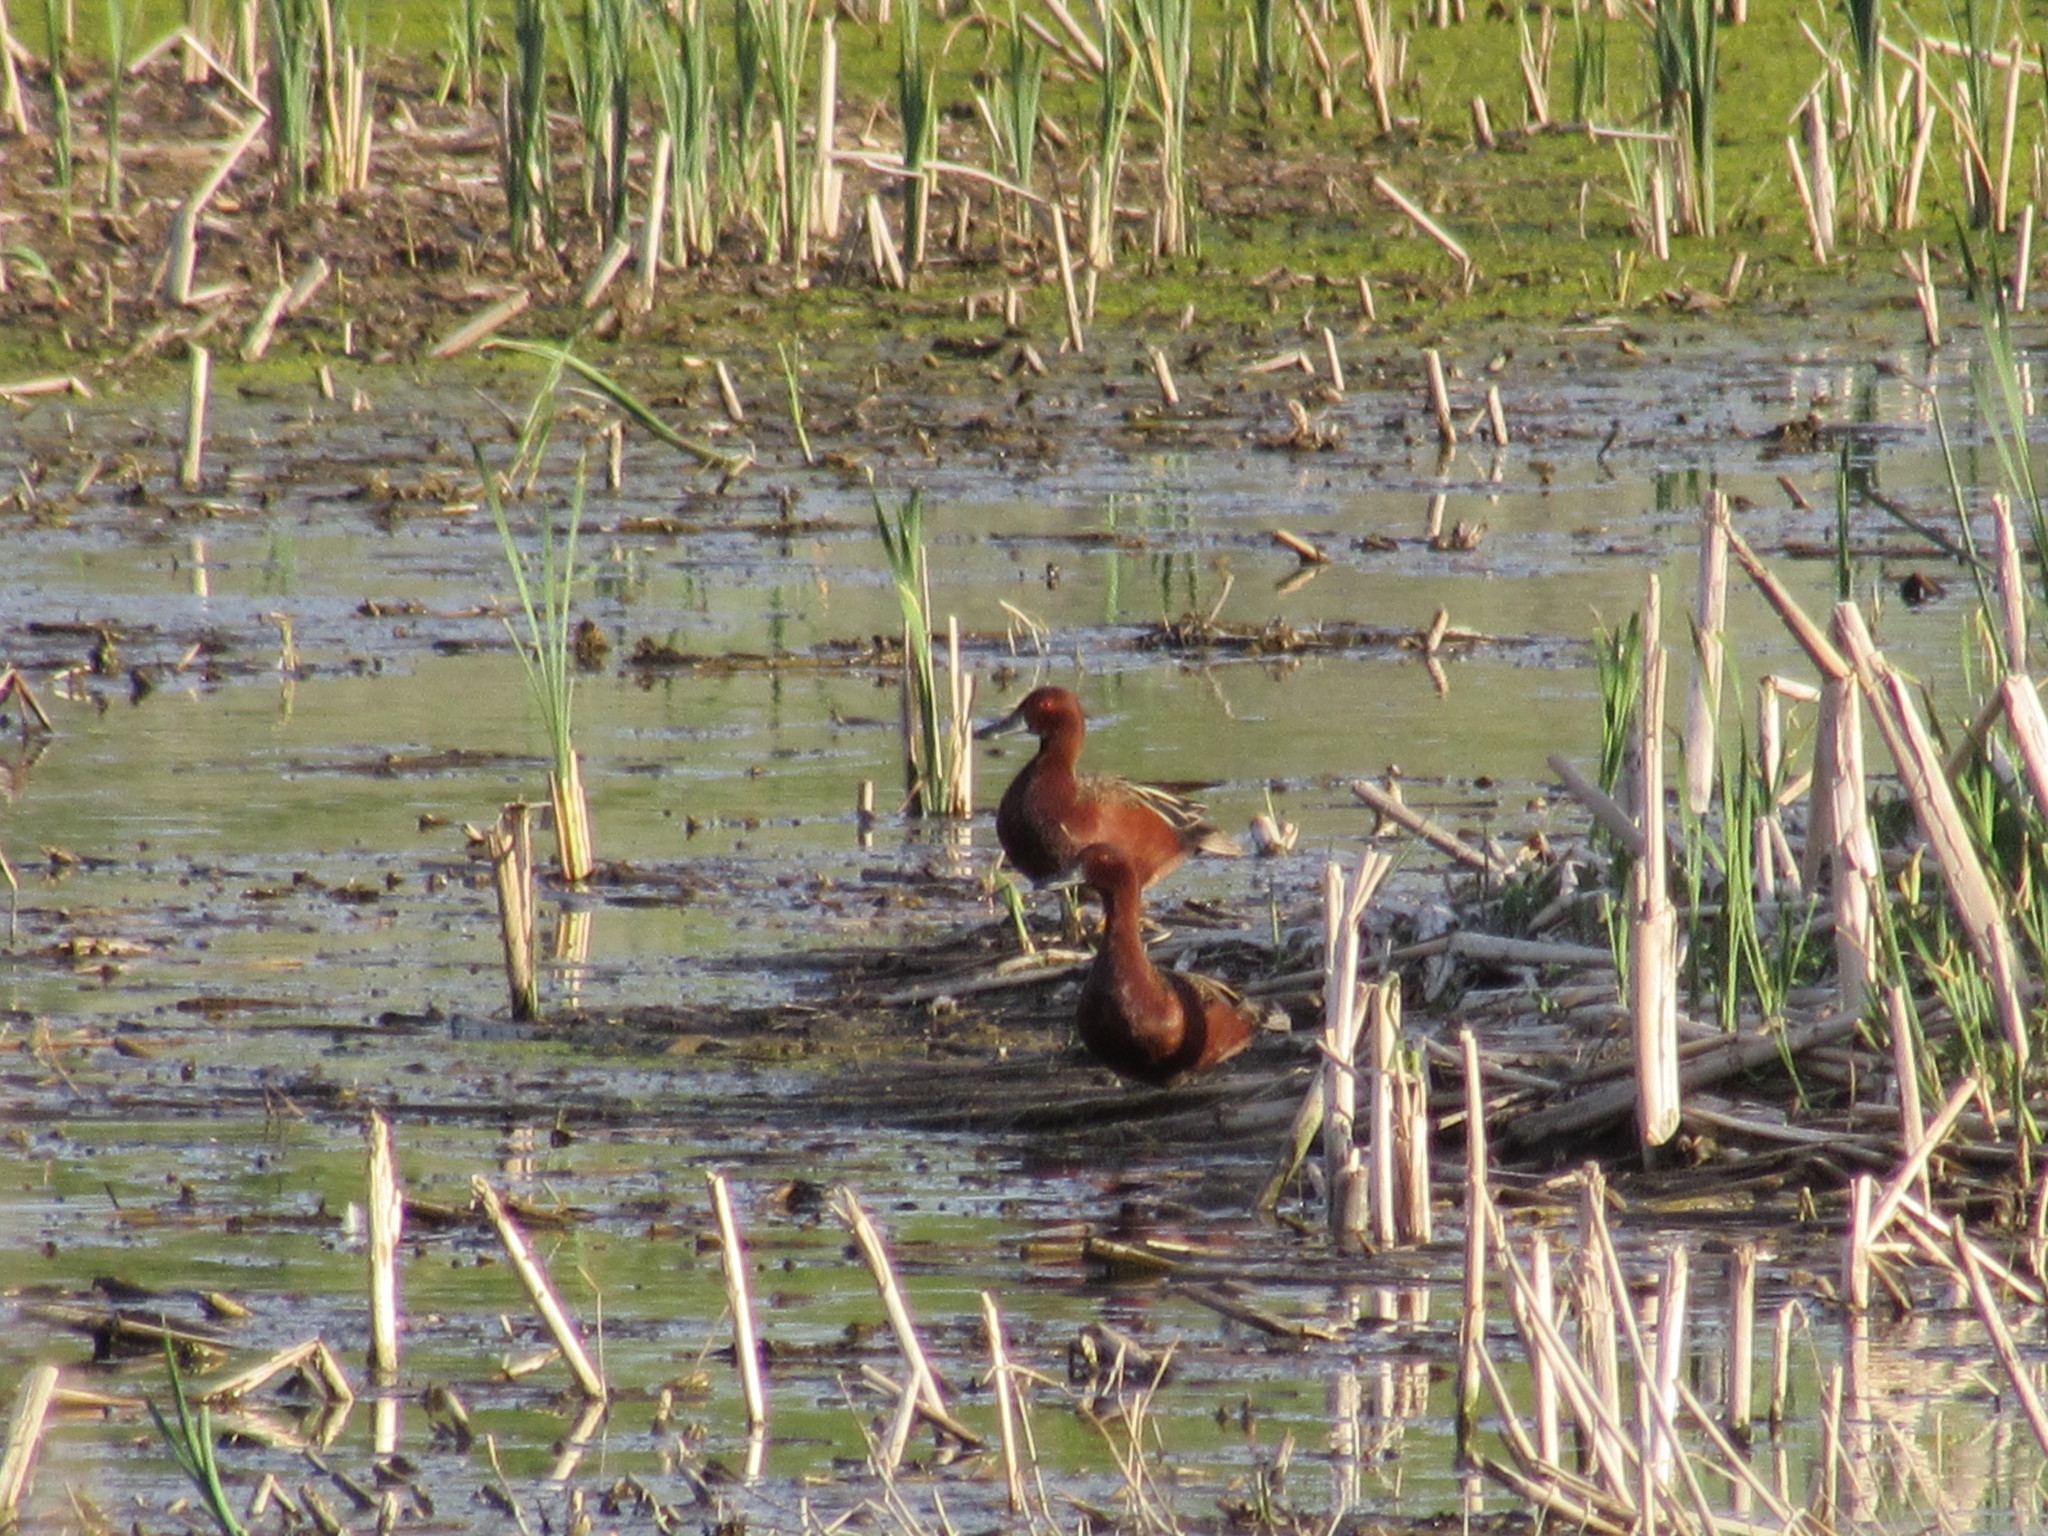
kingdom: Animalia
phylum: Chordata
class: Aves
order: Anseriformes
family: Anatidae
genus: Spatula
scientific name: Spatula cyanoptera
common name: Cinnamon teal
